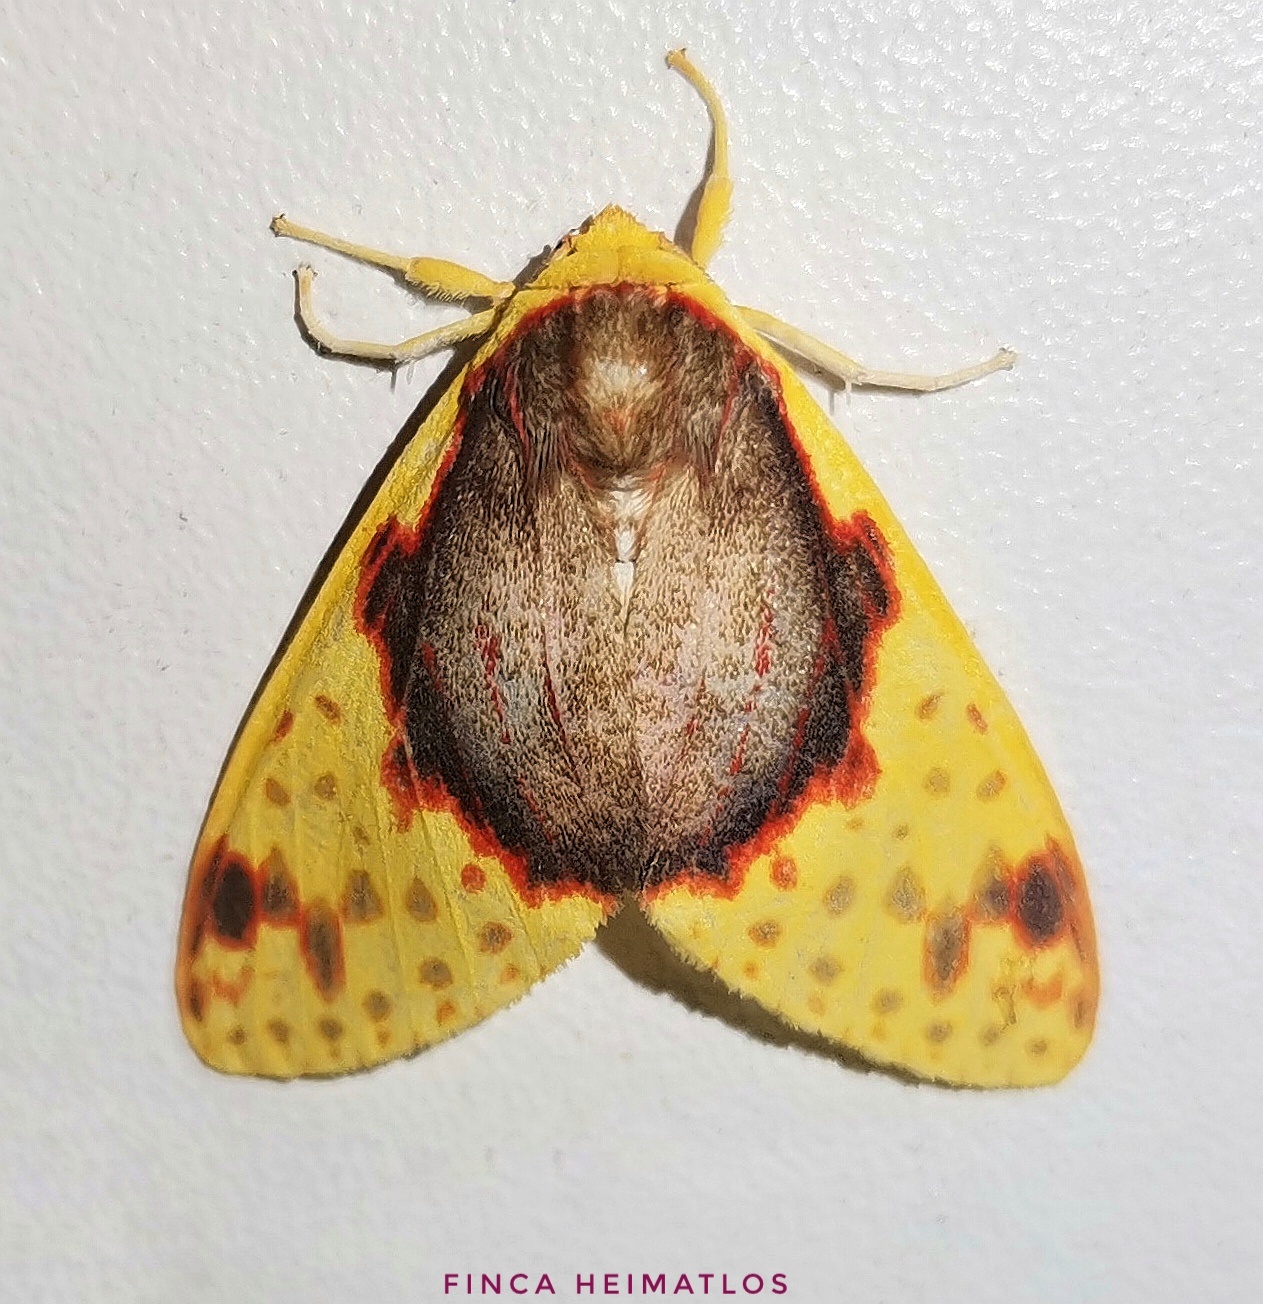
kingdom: Animalia
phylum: Arthropoda
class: Insecta
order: Lepidoptera
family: Erebidae
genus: Amaxia
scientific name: Amaxia flavicollis
